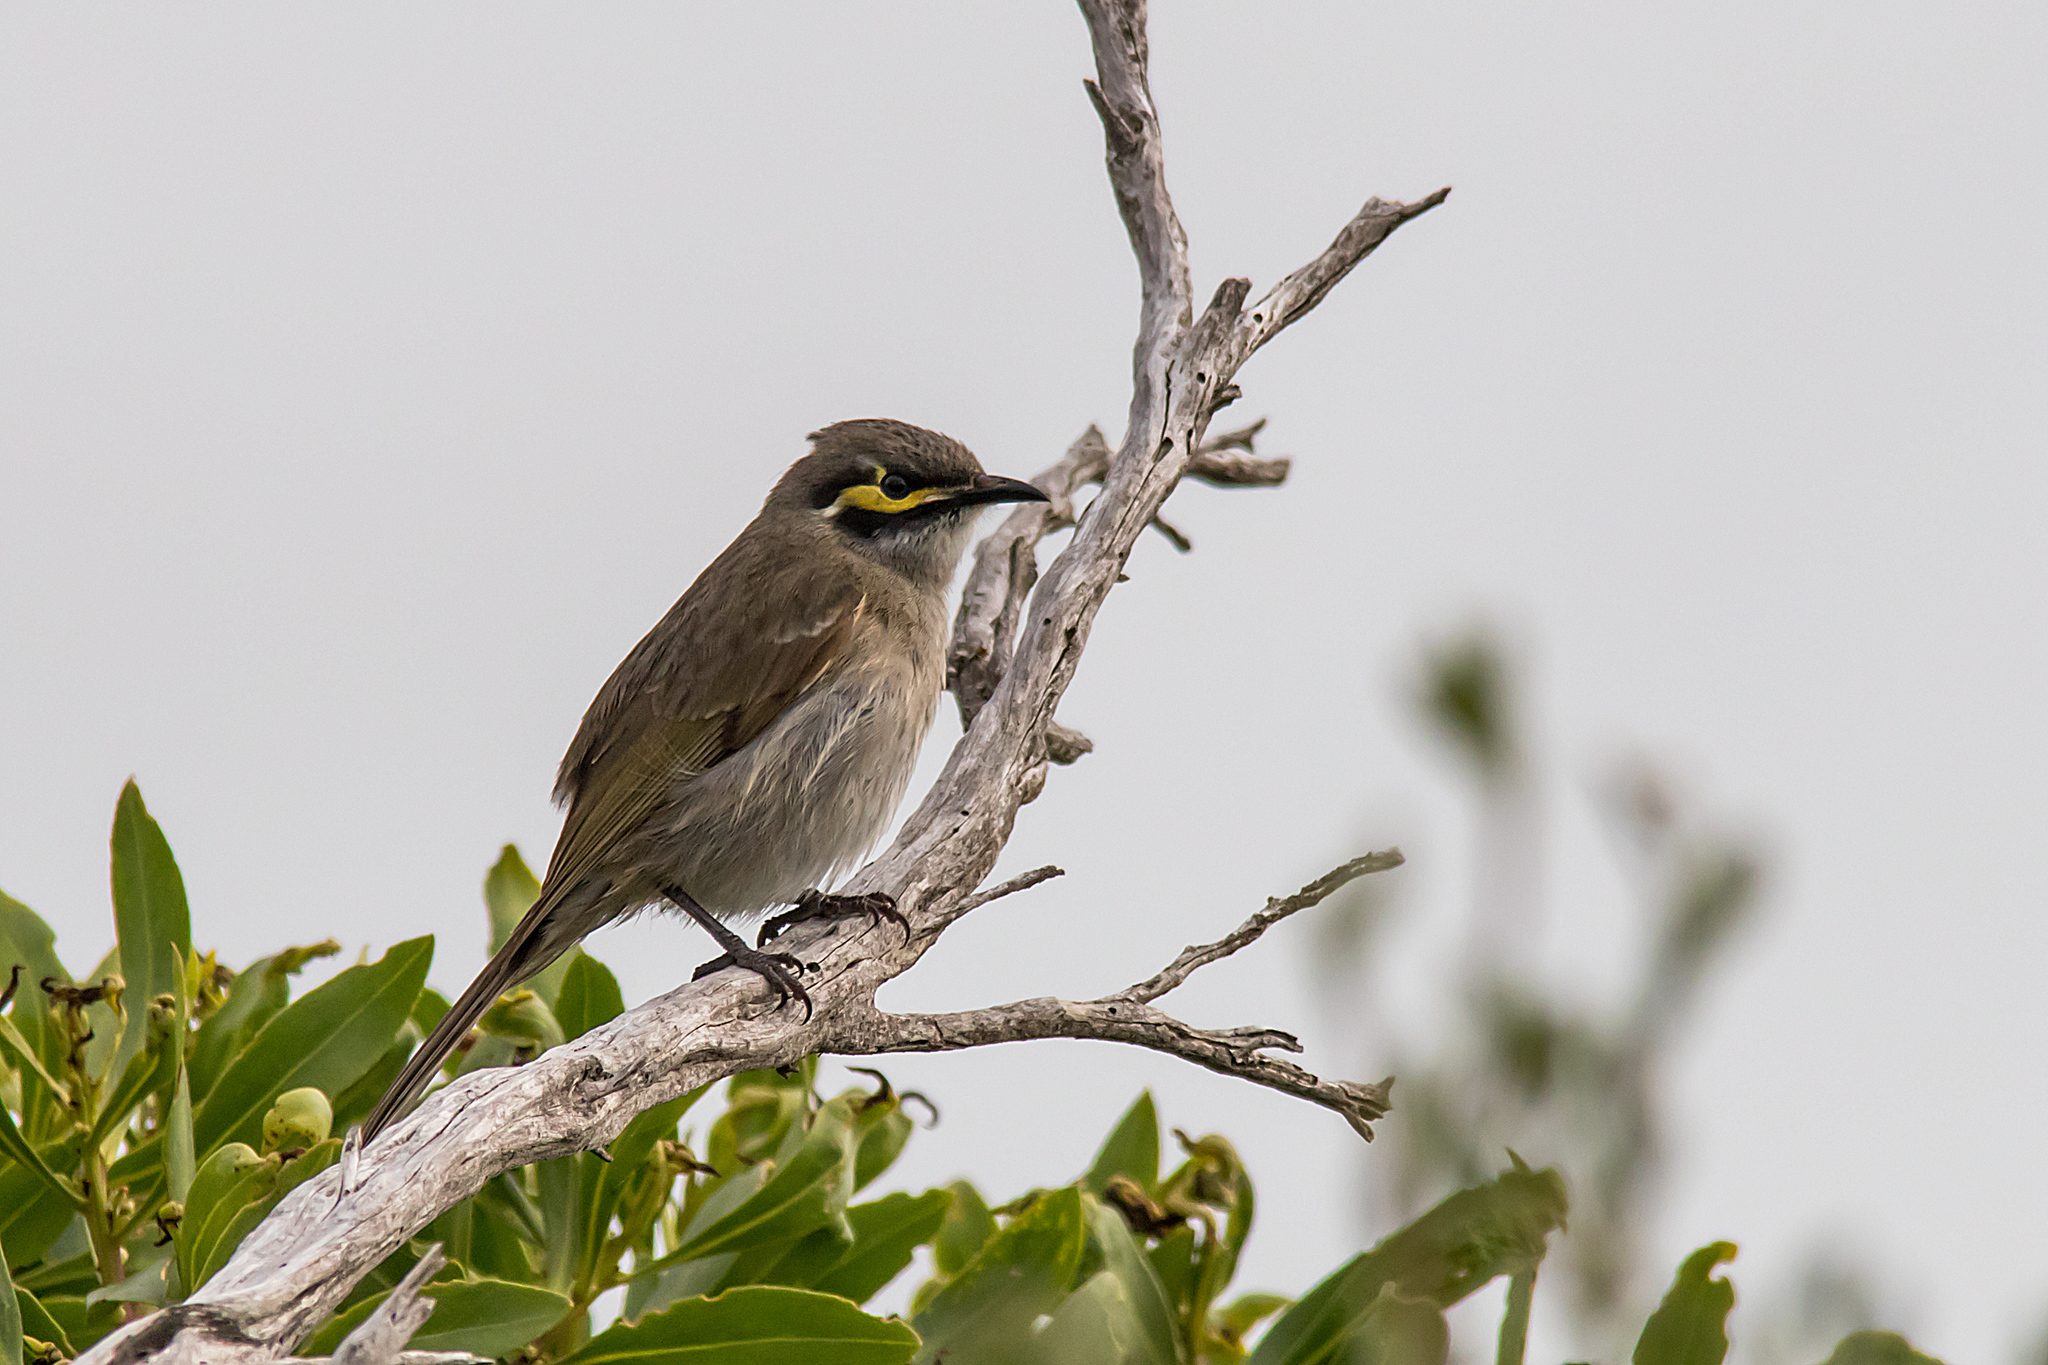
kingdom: Animalia
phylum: Chordata
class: Aves
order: Passeriformes
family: Meliphagidae
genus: Caligavis
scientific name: Caligavis chrysops
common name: Yellow-faced honeyeater
